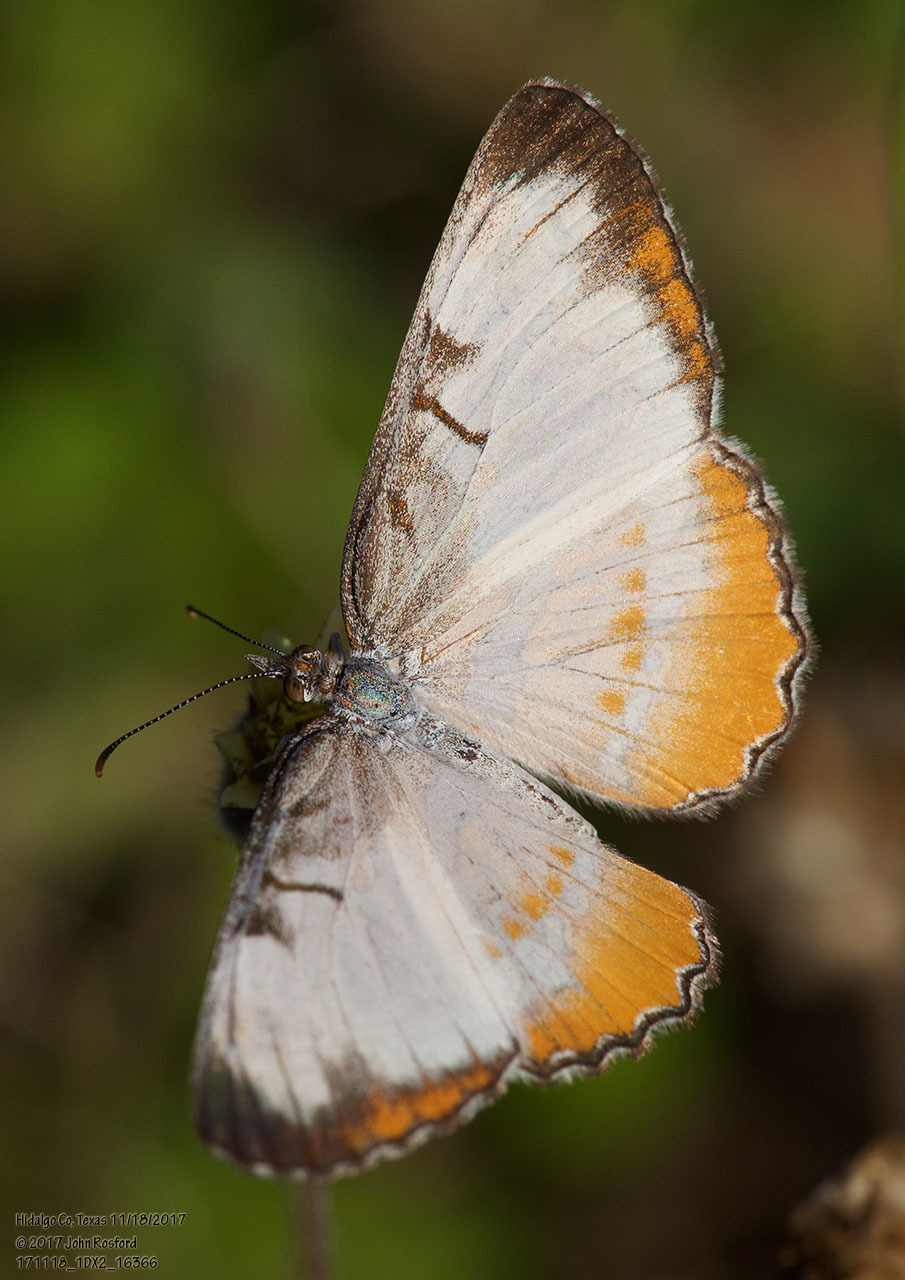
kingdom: Animalia
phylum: Arthropoda
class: Insecta
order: Lepidoptera
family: Nymphalidae
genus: Mestra
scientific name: Mestra amymone
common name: Common mestra
